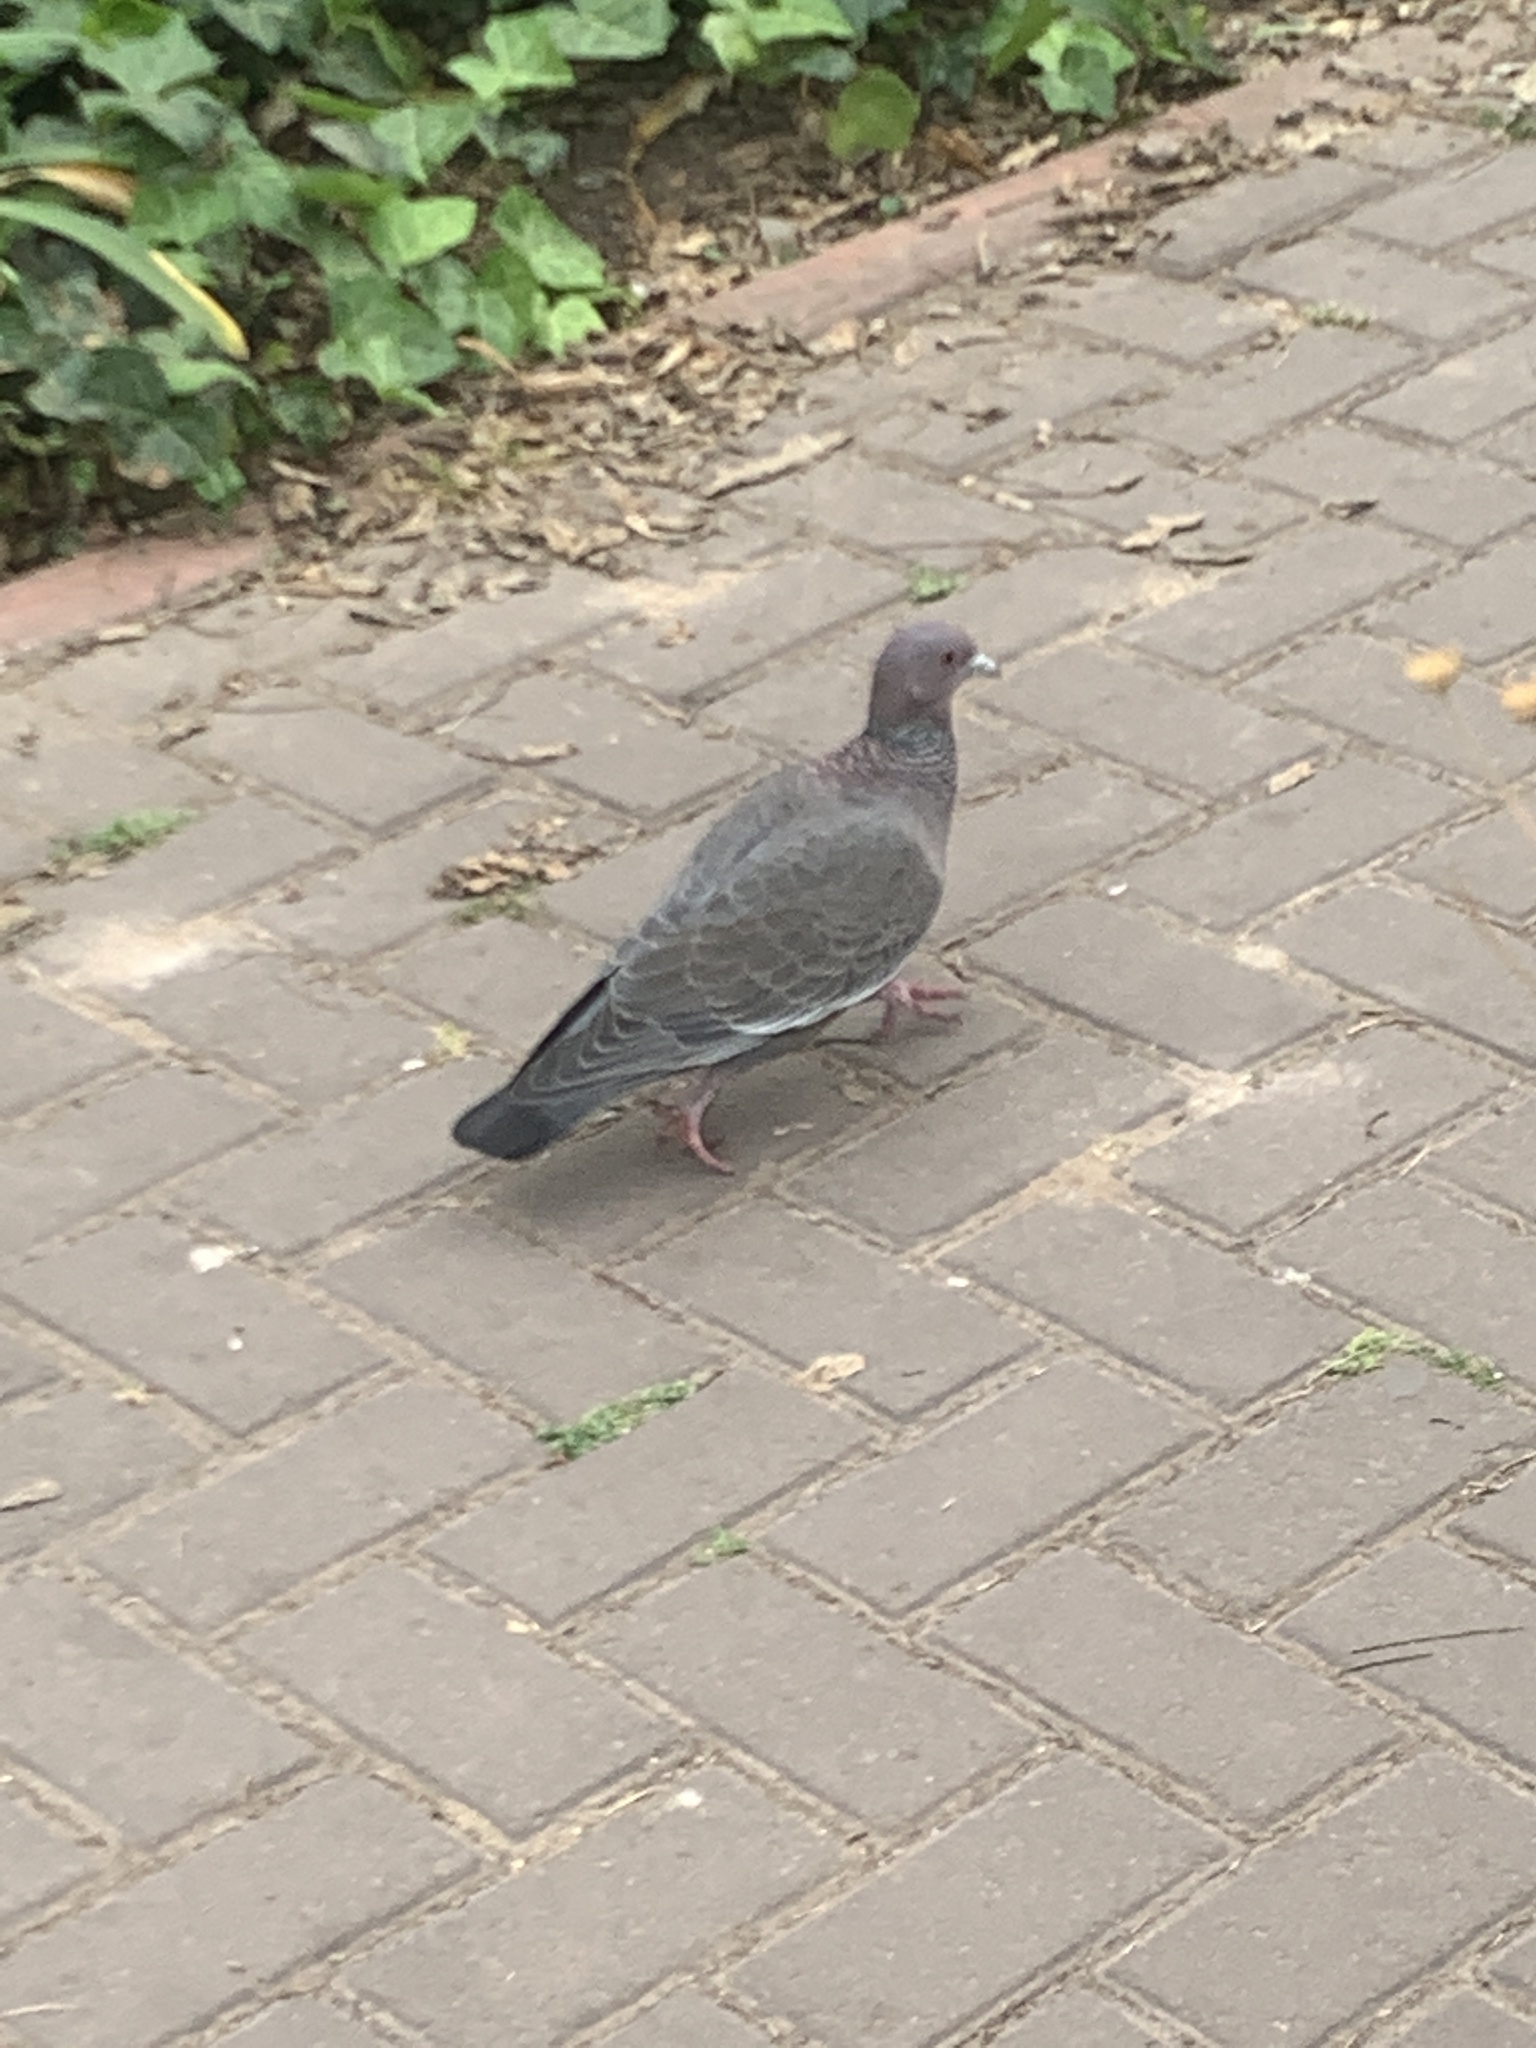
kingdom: Animalia
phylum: Chordata
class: Aves
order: Columbiformes
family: Columbidae
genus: Patagioenas
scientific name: Patagioenas picazuro
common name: Picazuro pigeon
